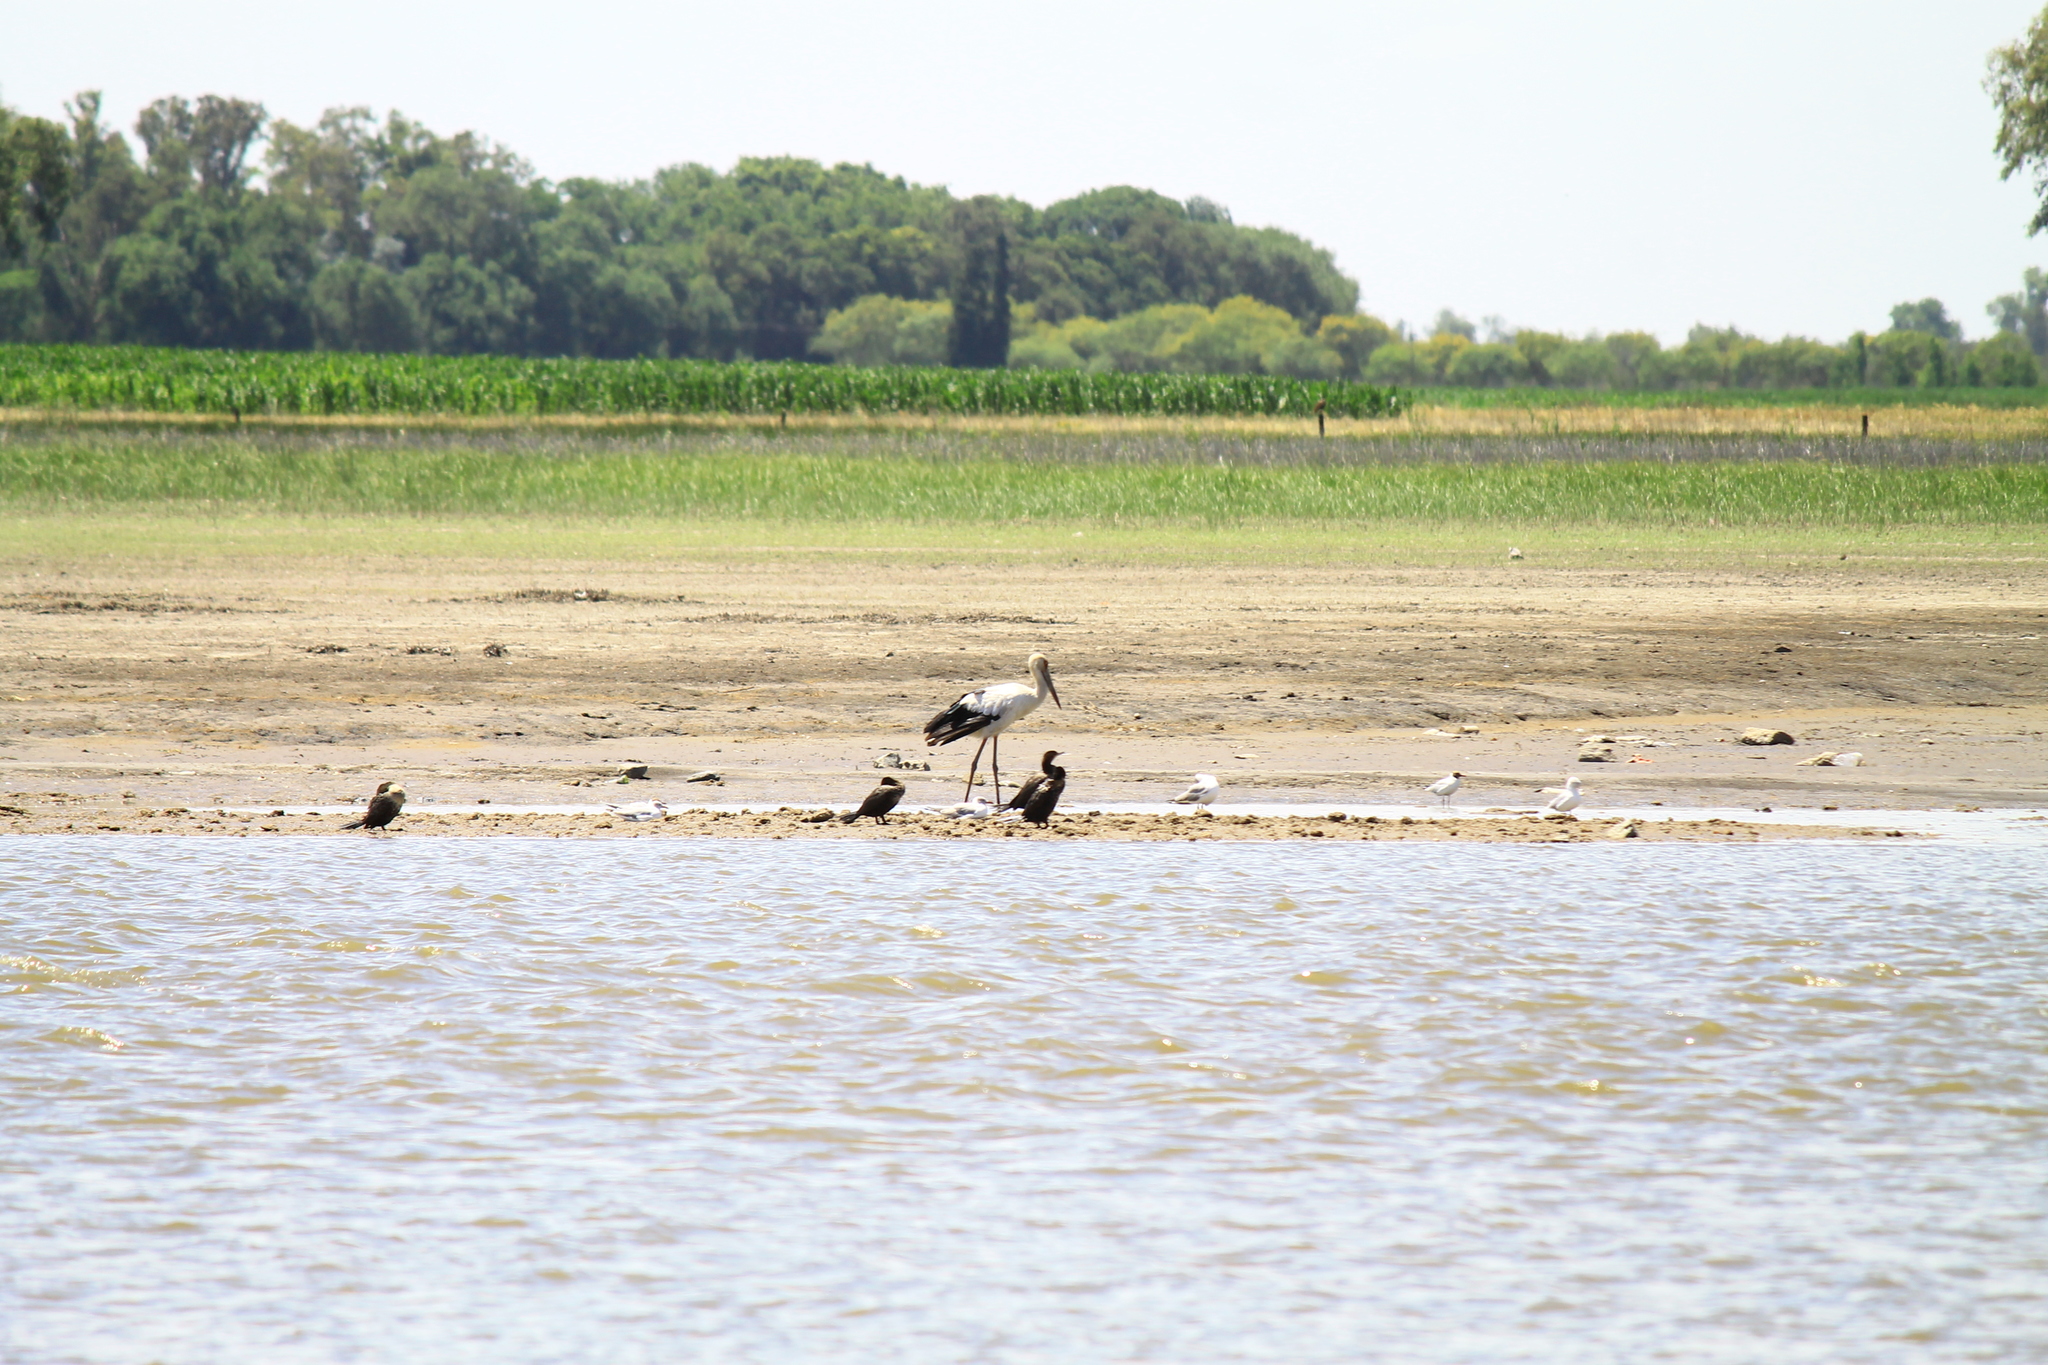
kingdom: Animalia
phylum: Chordata
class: Aves
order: Ciconiiformes
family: Ciconiidae
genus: Ciconia
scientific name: Ciconia maguari
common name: Maguari stork
